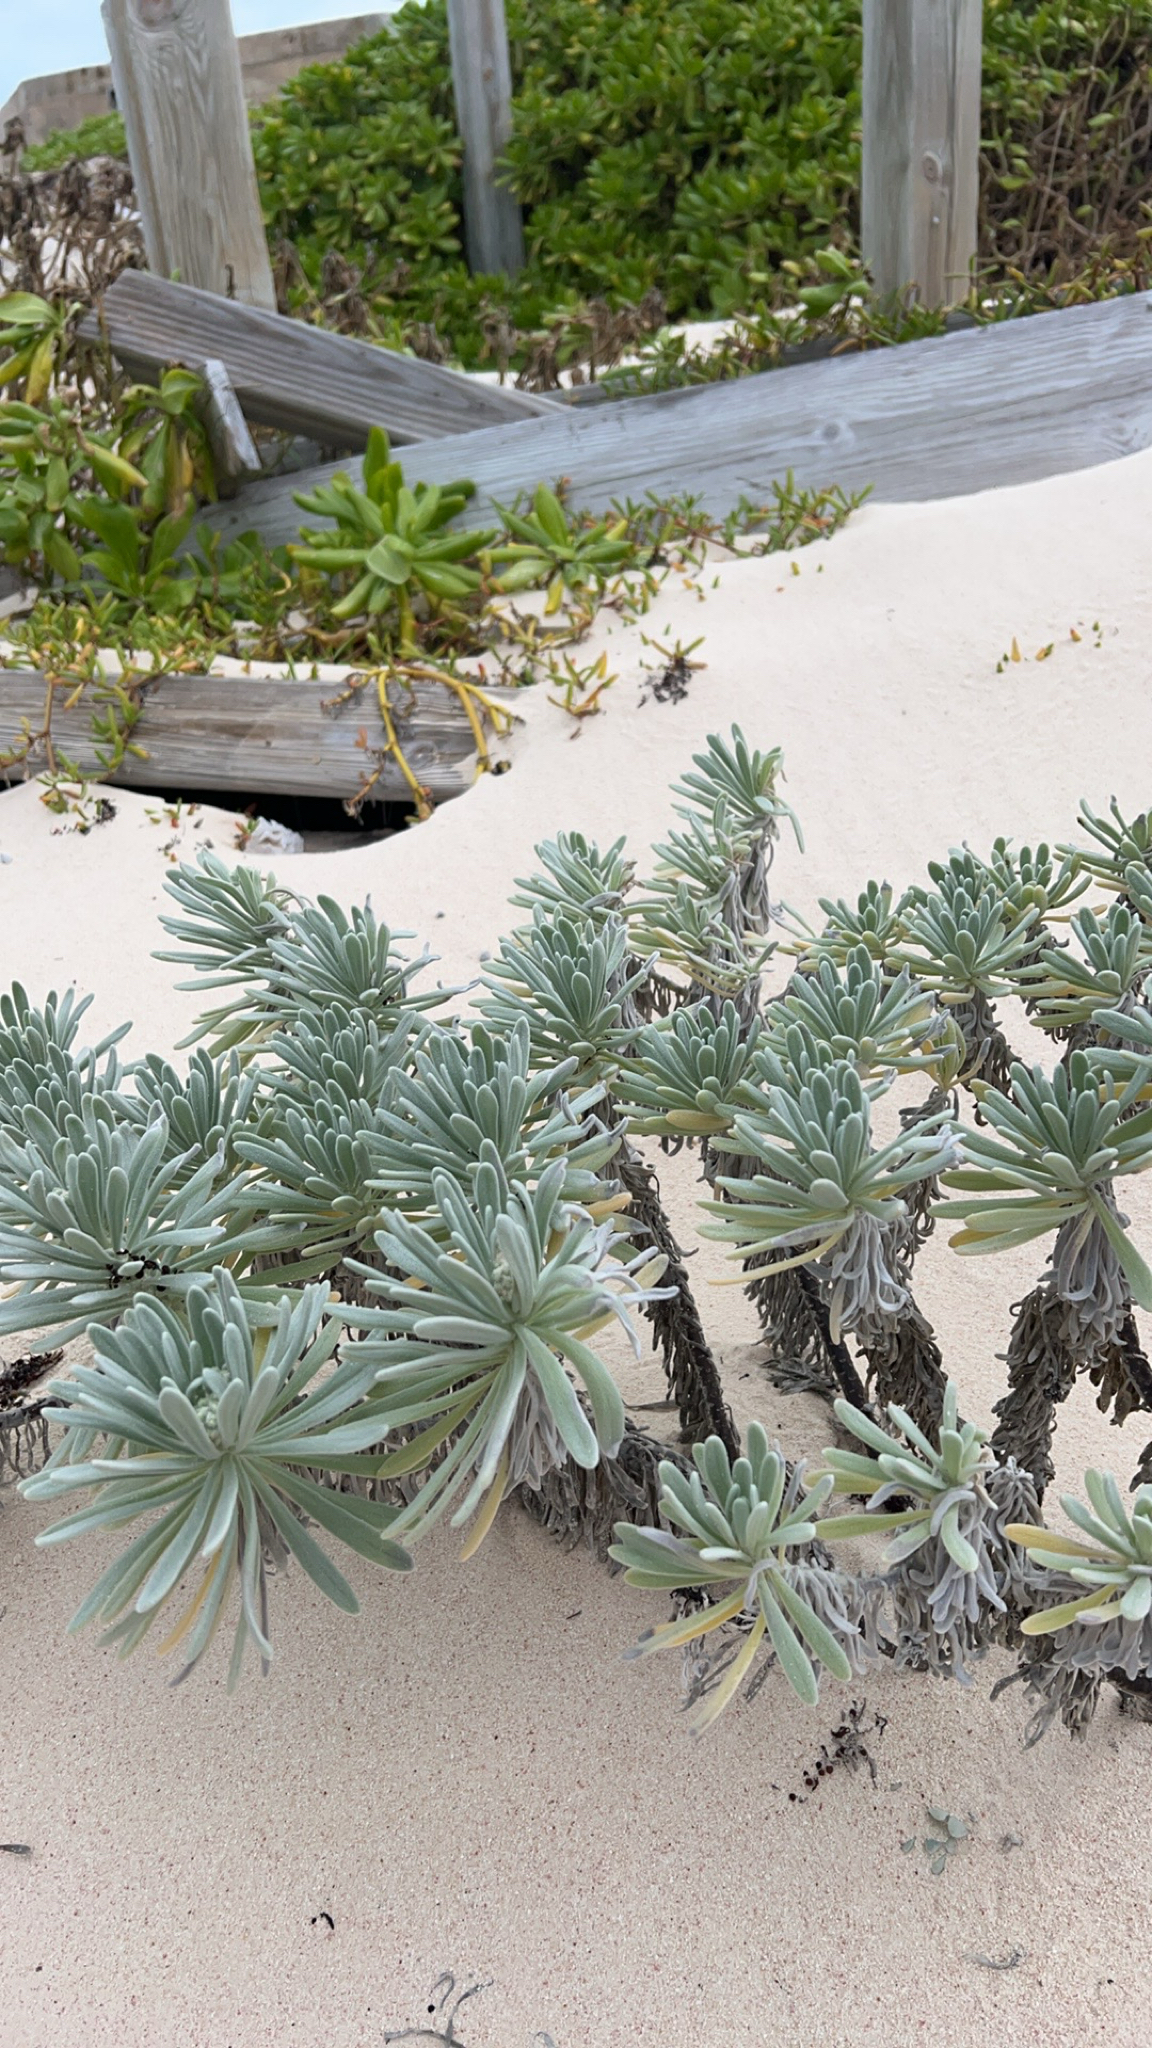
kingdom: Plantae
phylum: Tracheophyta
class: Magnoliopsida
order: Boraginales
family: Heliotropiaceae
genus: Tournefortia
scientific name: Tournefortia gnaphalodes
